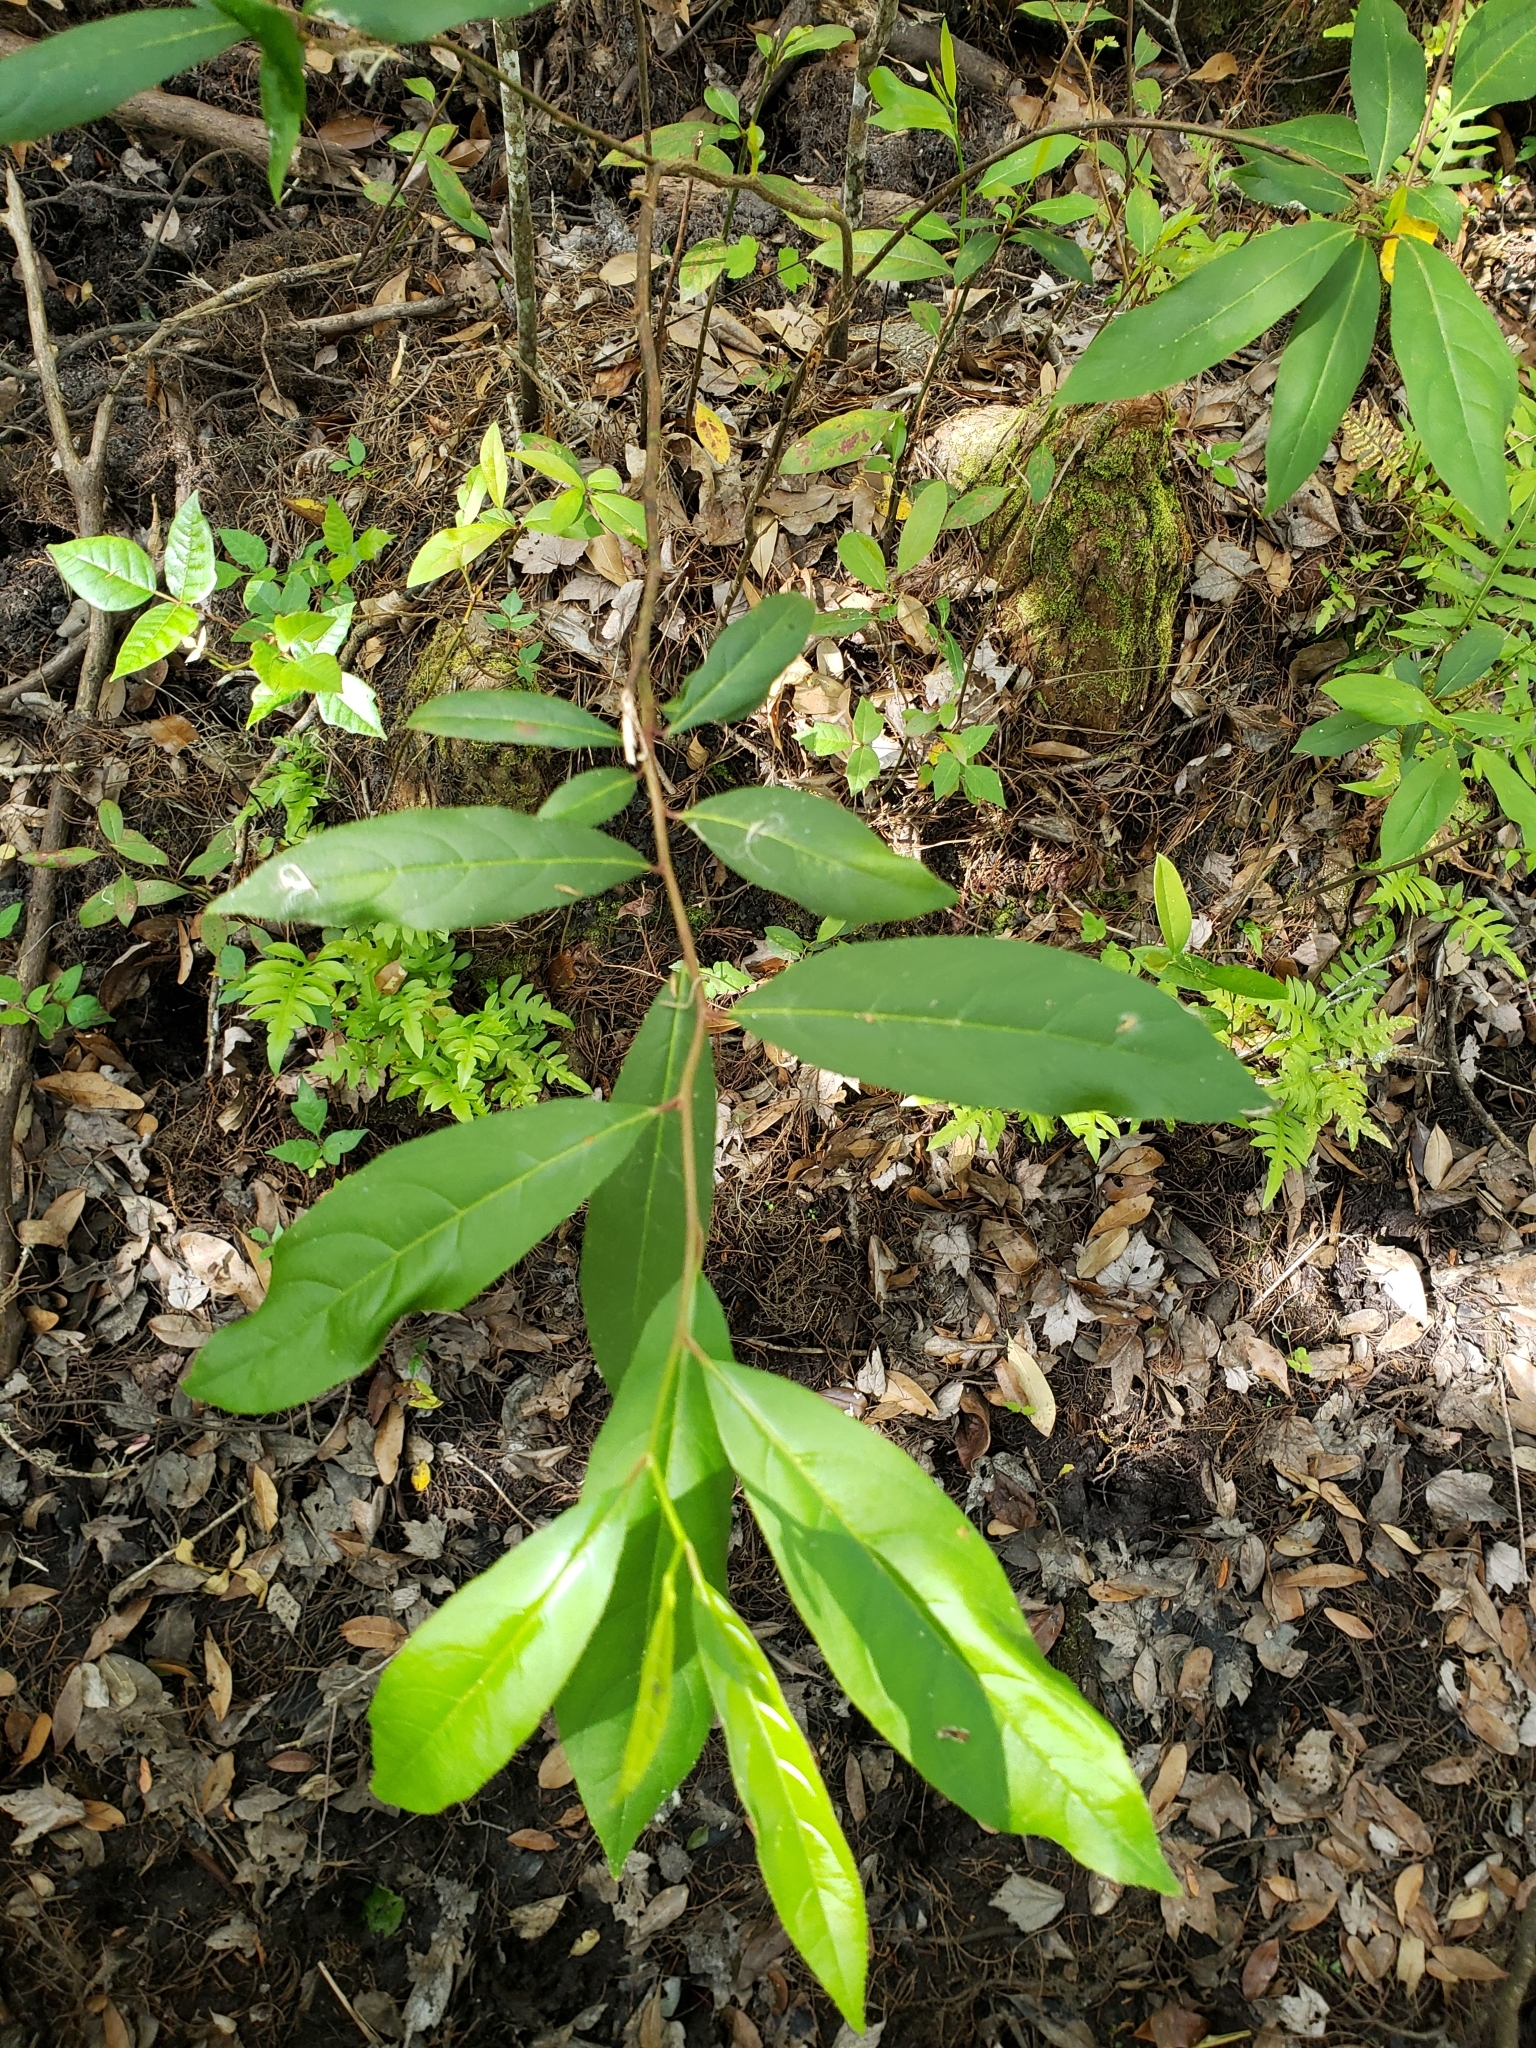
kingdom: Plantae
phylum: Tracheophyta
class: Magnoliopsida
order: Saxifragales
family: Iteaceae
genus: Itea
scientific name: Itea virginica
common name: Sweetspire
